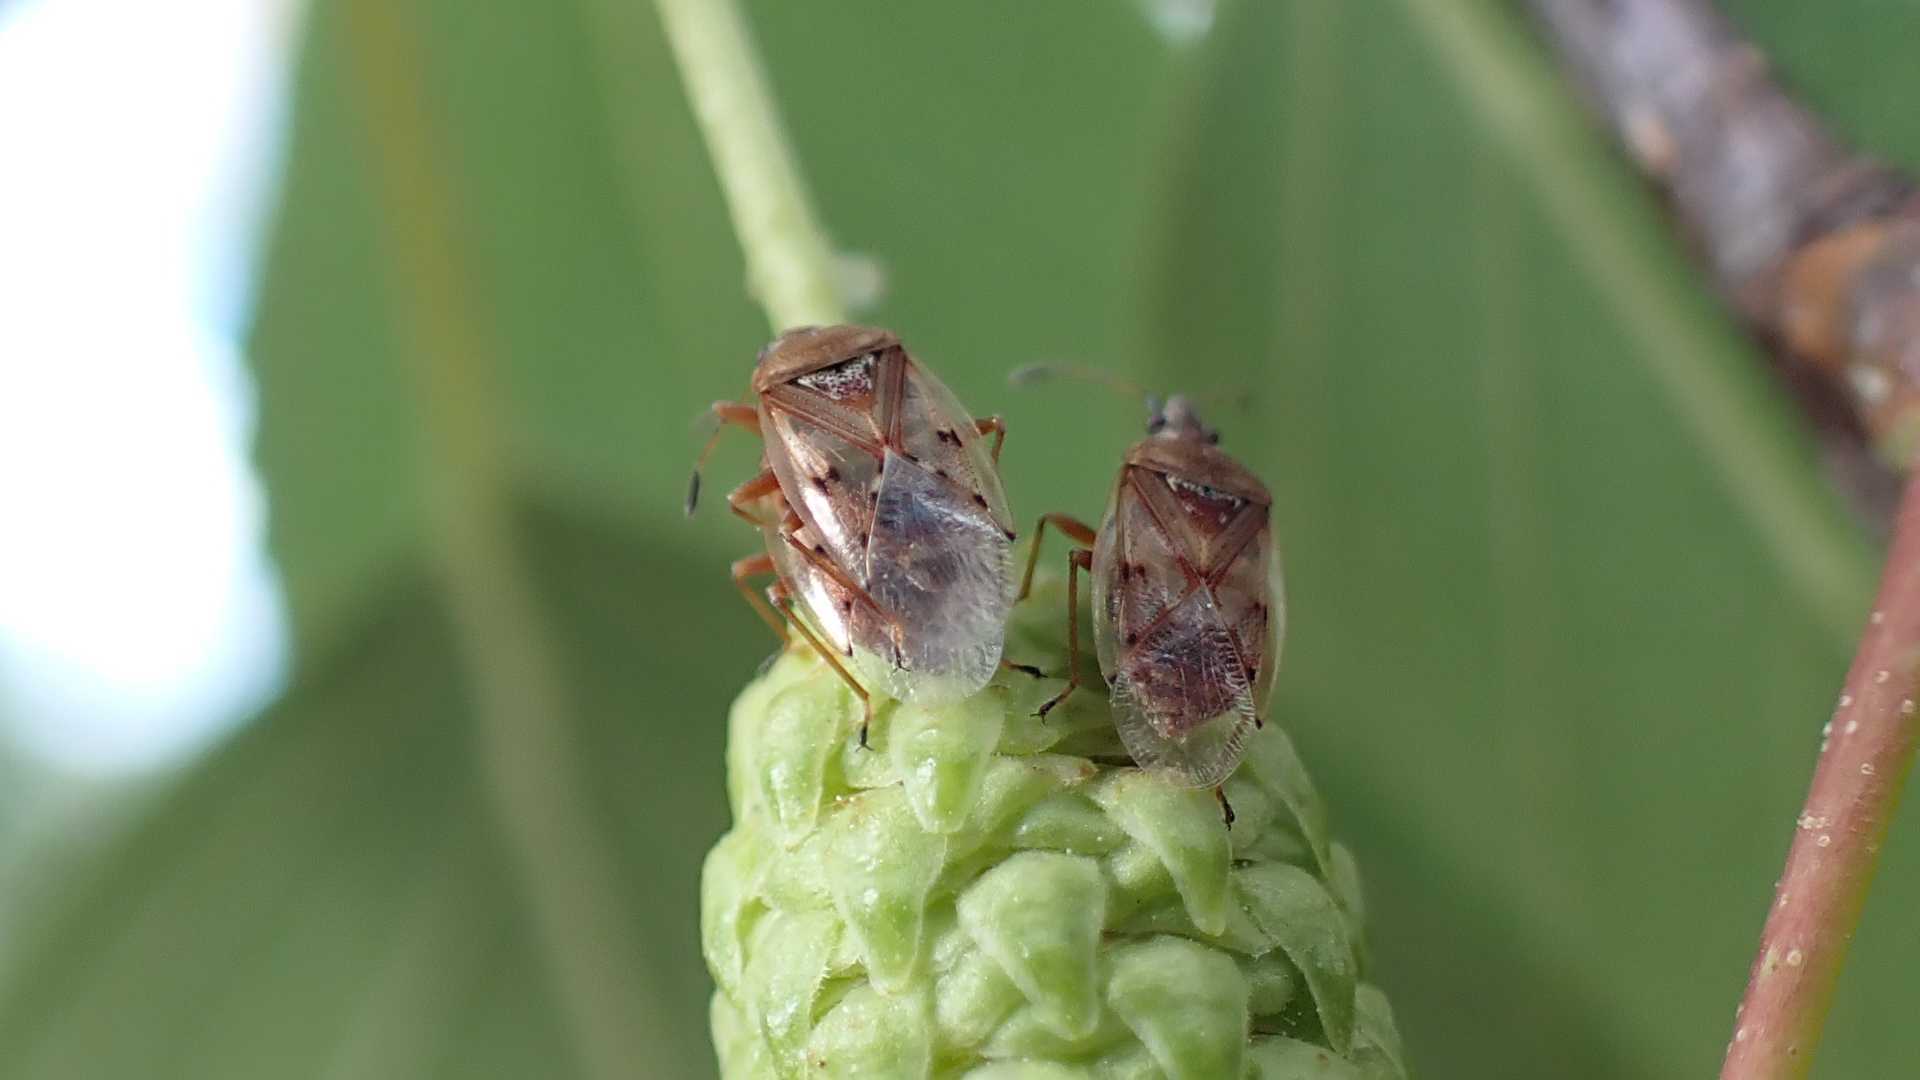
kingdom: Animalia
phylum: Arthropoda
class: Insecta
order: Hemiptera
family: Lygaeidae
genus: Kleidocerys
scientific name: Kleidocerys resedae
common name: Birch catkin bug
